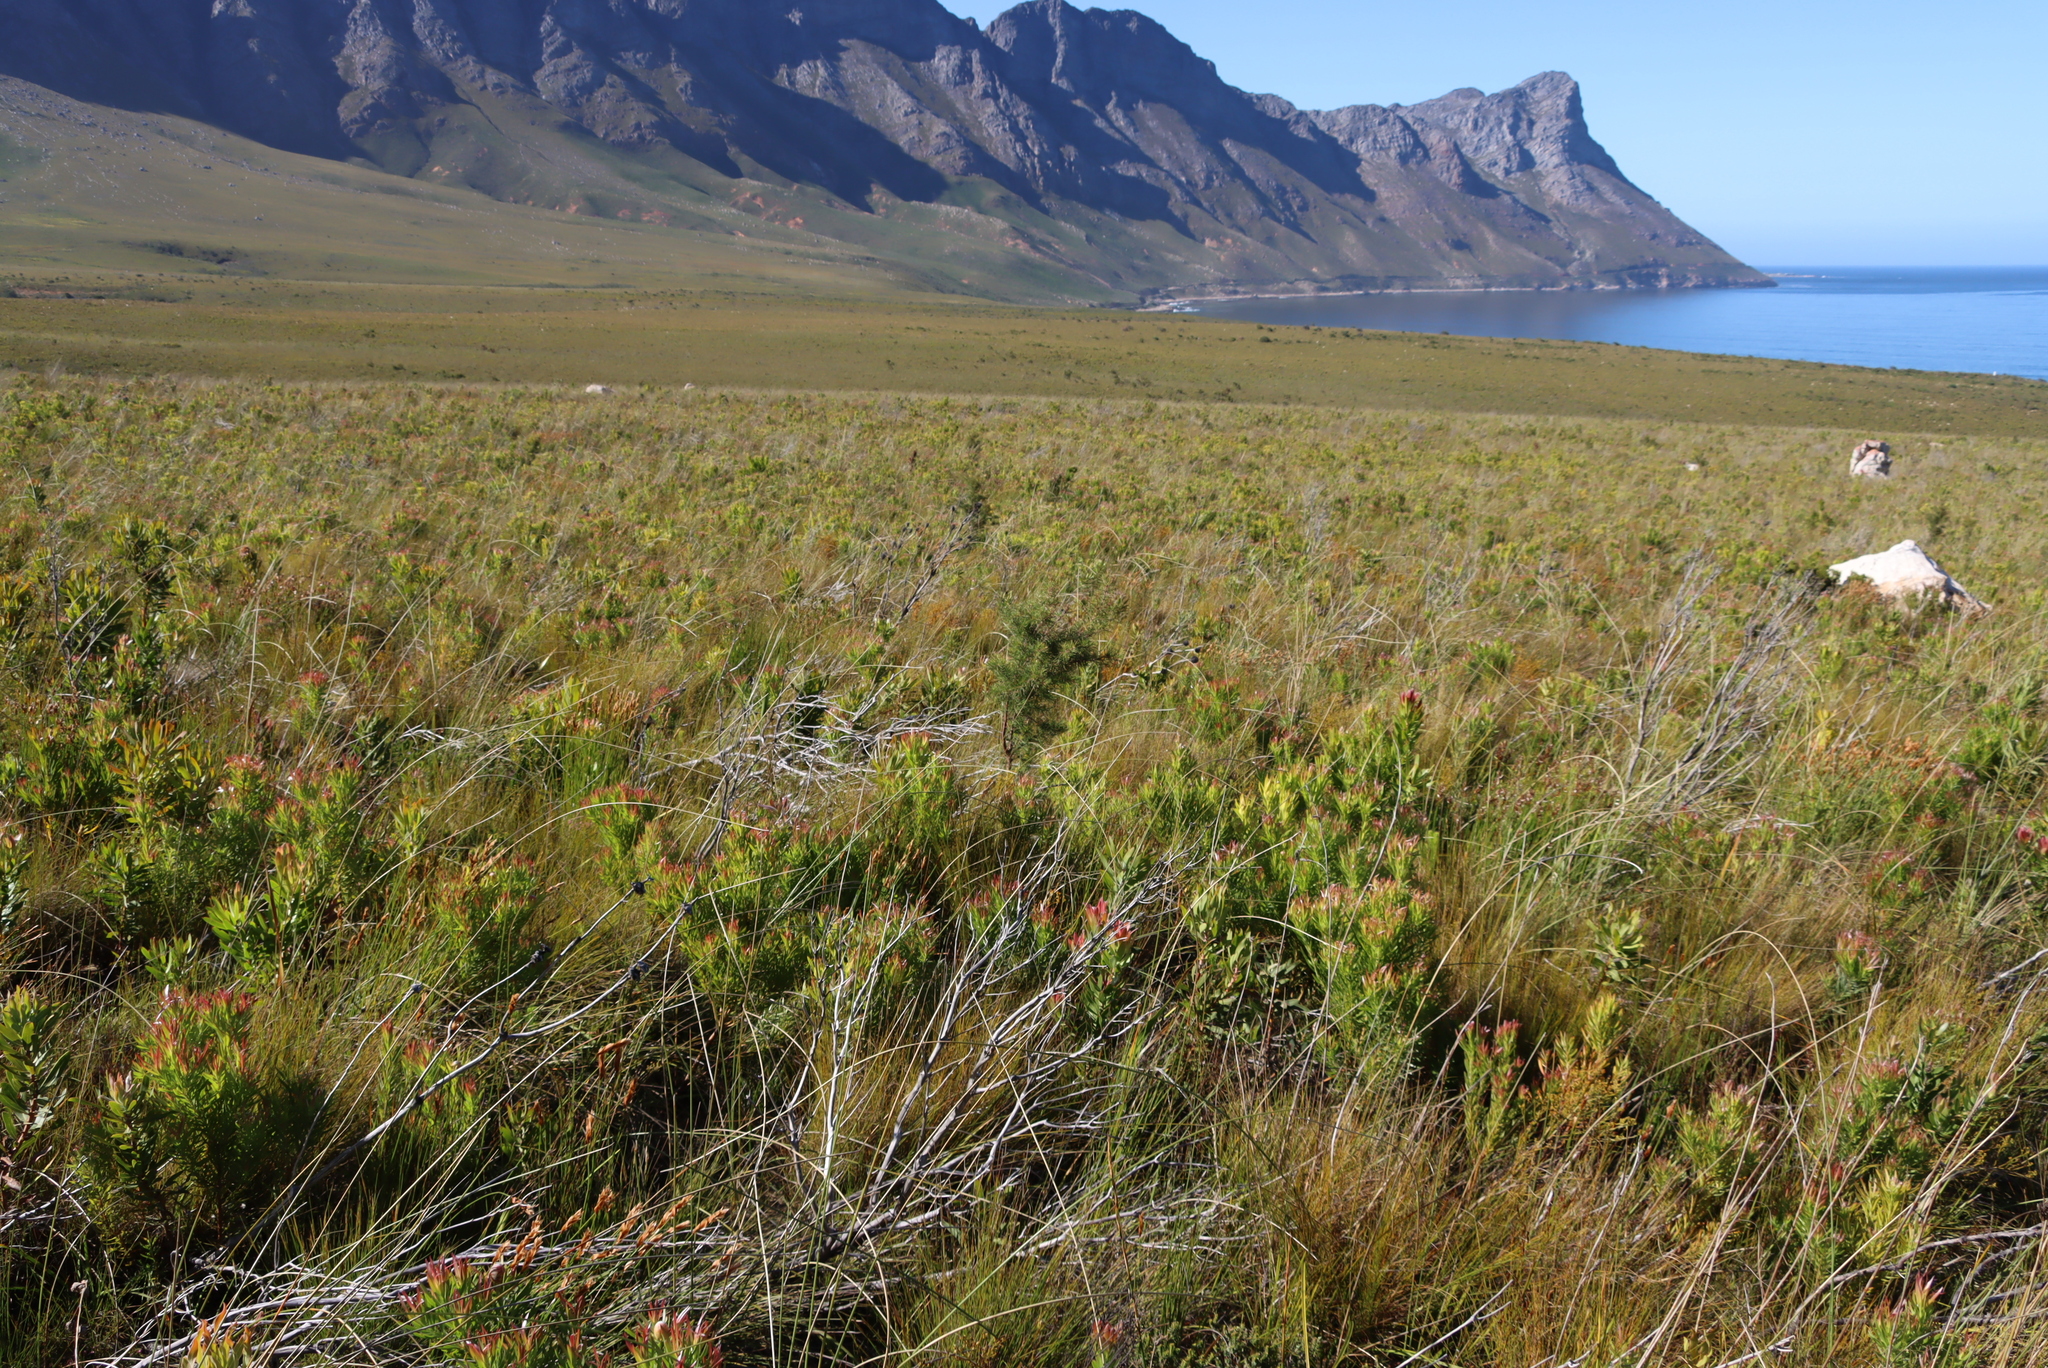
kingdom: Plantae
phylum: Tracheophyta
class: Magnoliopsida
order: Proteales
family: Proteaceae
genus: Hakea
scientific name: Hakea sericea
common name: Needle bush
